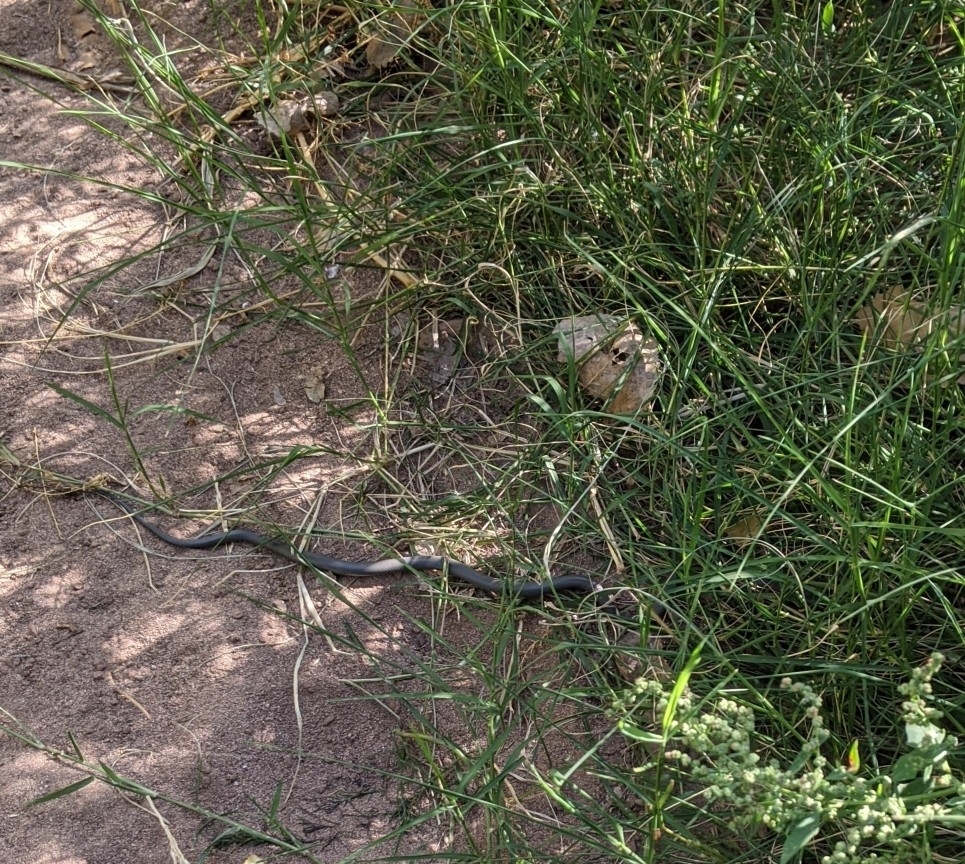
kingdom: Animalia
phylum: Chordata
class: Squamata
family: Colubridae
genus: Diadophis
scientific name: Diadophis punctatus
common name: Ringneck snake
